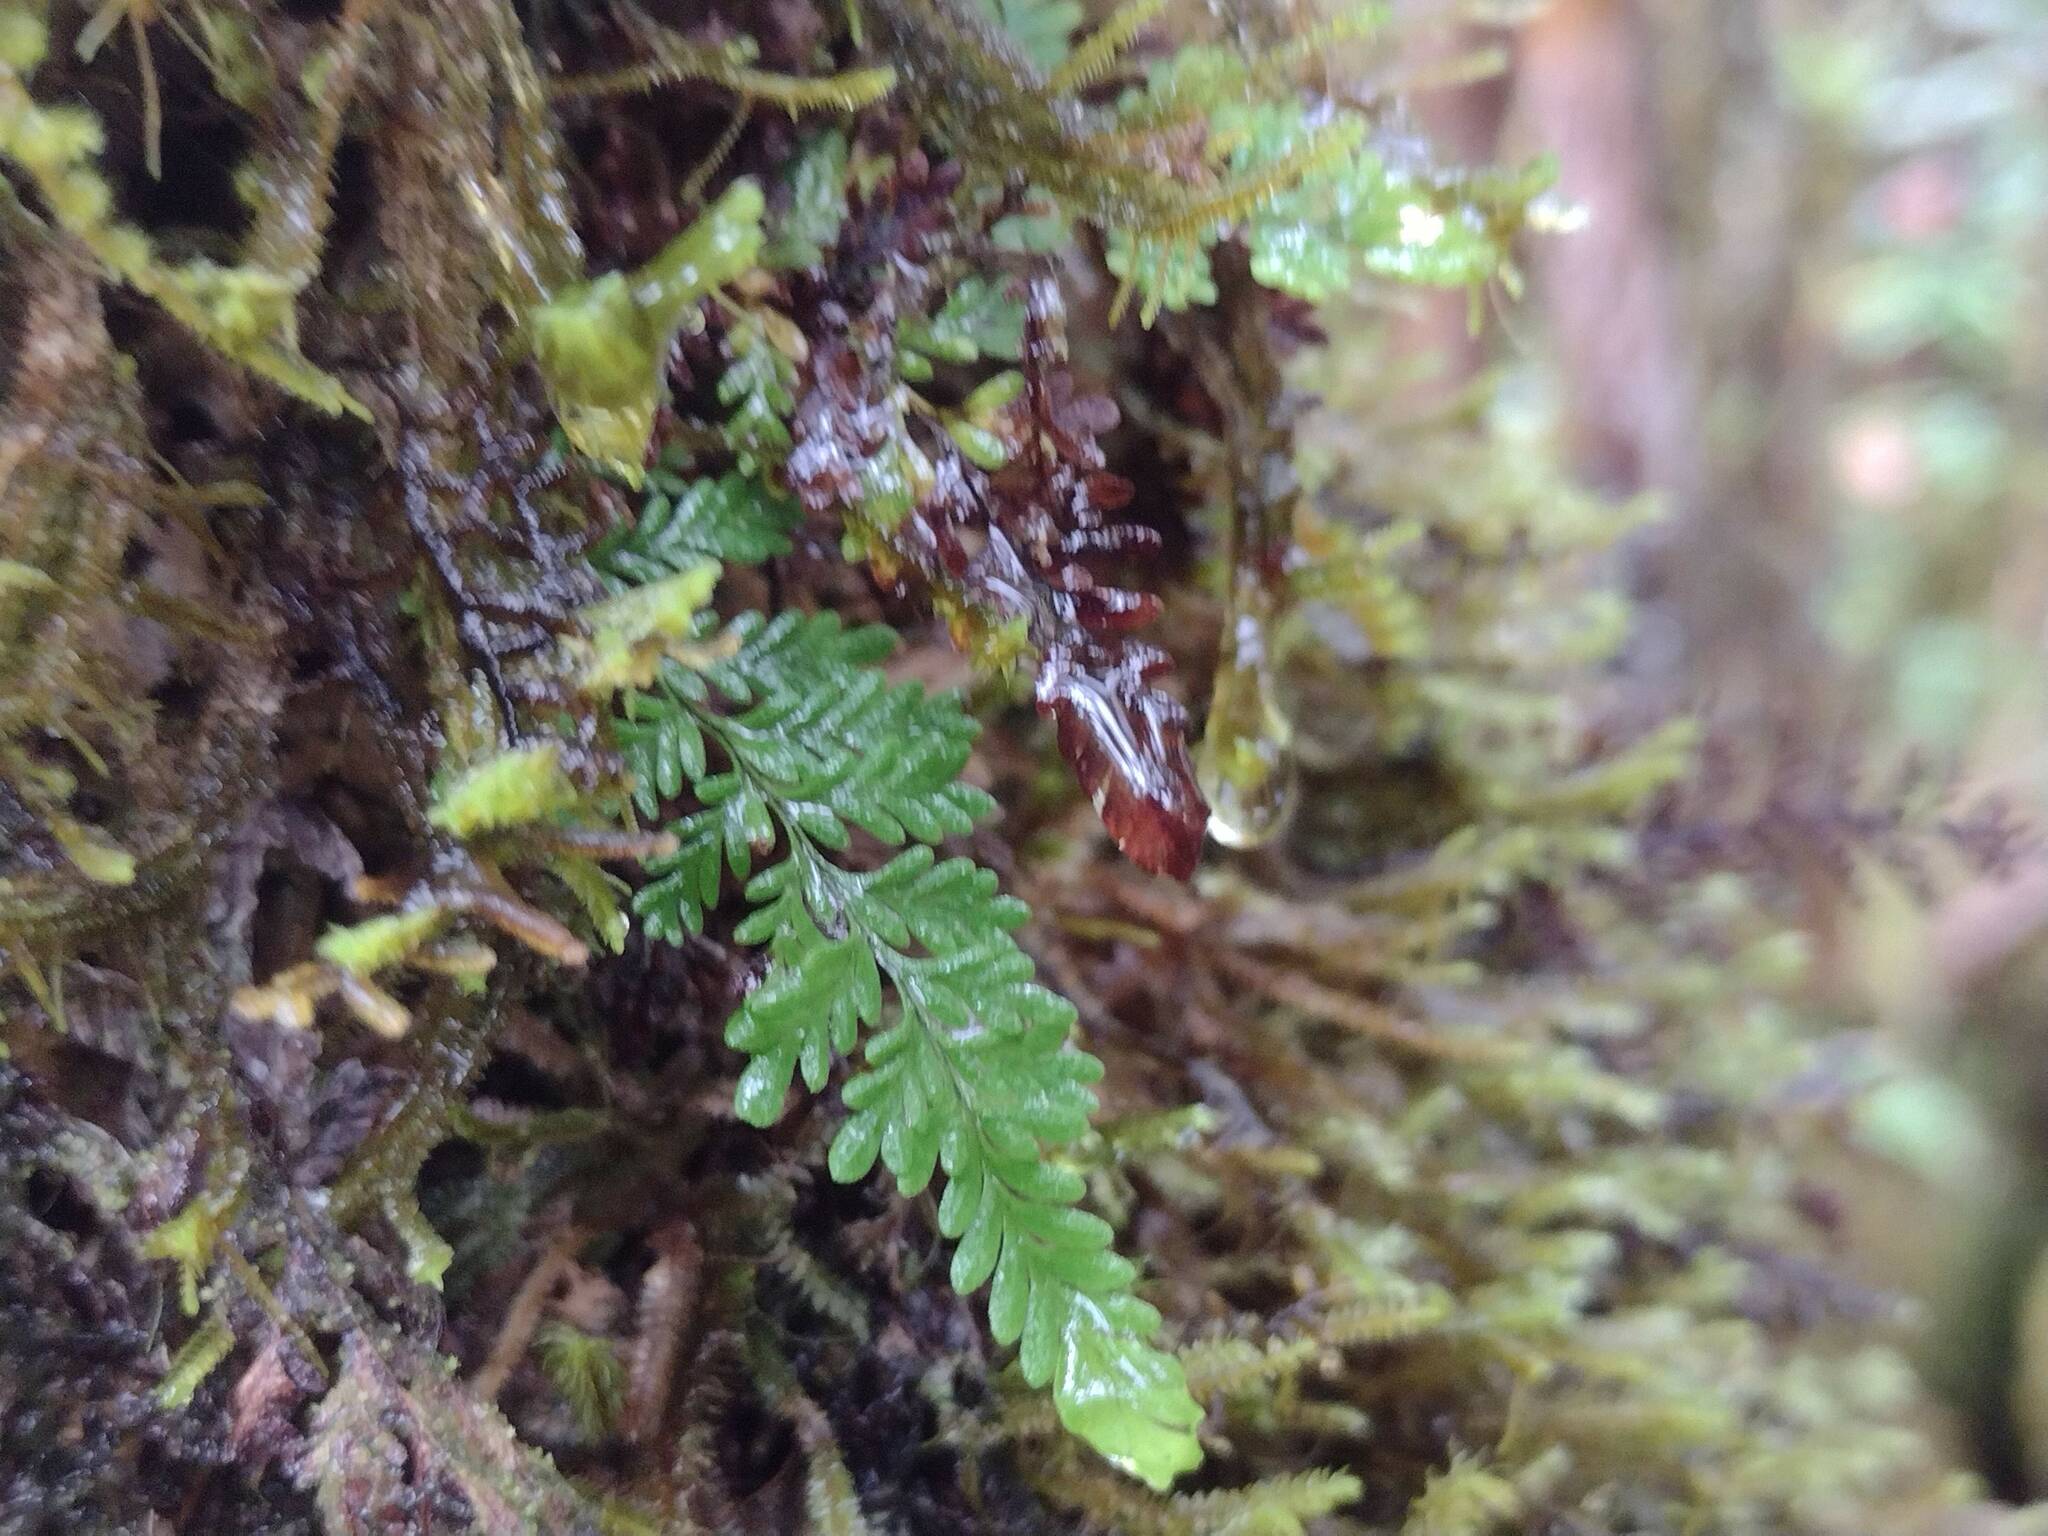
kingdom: Plantae
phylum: Tracheophyta
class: Polypodiopsida
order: Polypodiales
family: Polypodiaceae
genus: Adenophorus
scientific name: Adenophorus tamariscinus
